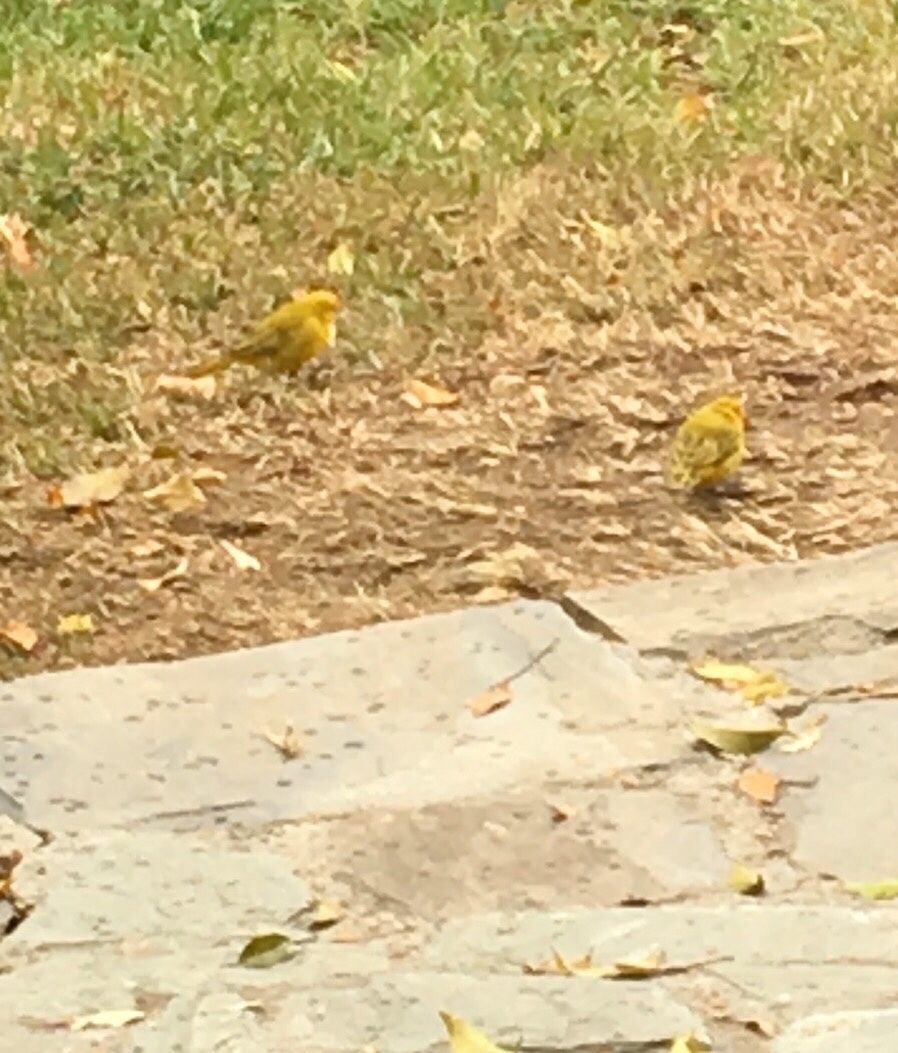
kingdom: Animalia
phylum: Chordata
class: Aves
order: Passeriformes
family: Thraupidae
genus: Sicalis
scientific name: Sicalis flaveola
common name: Saffron finch
